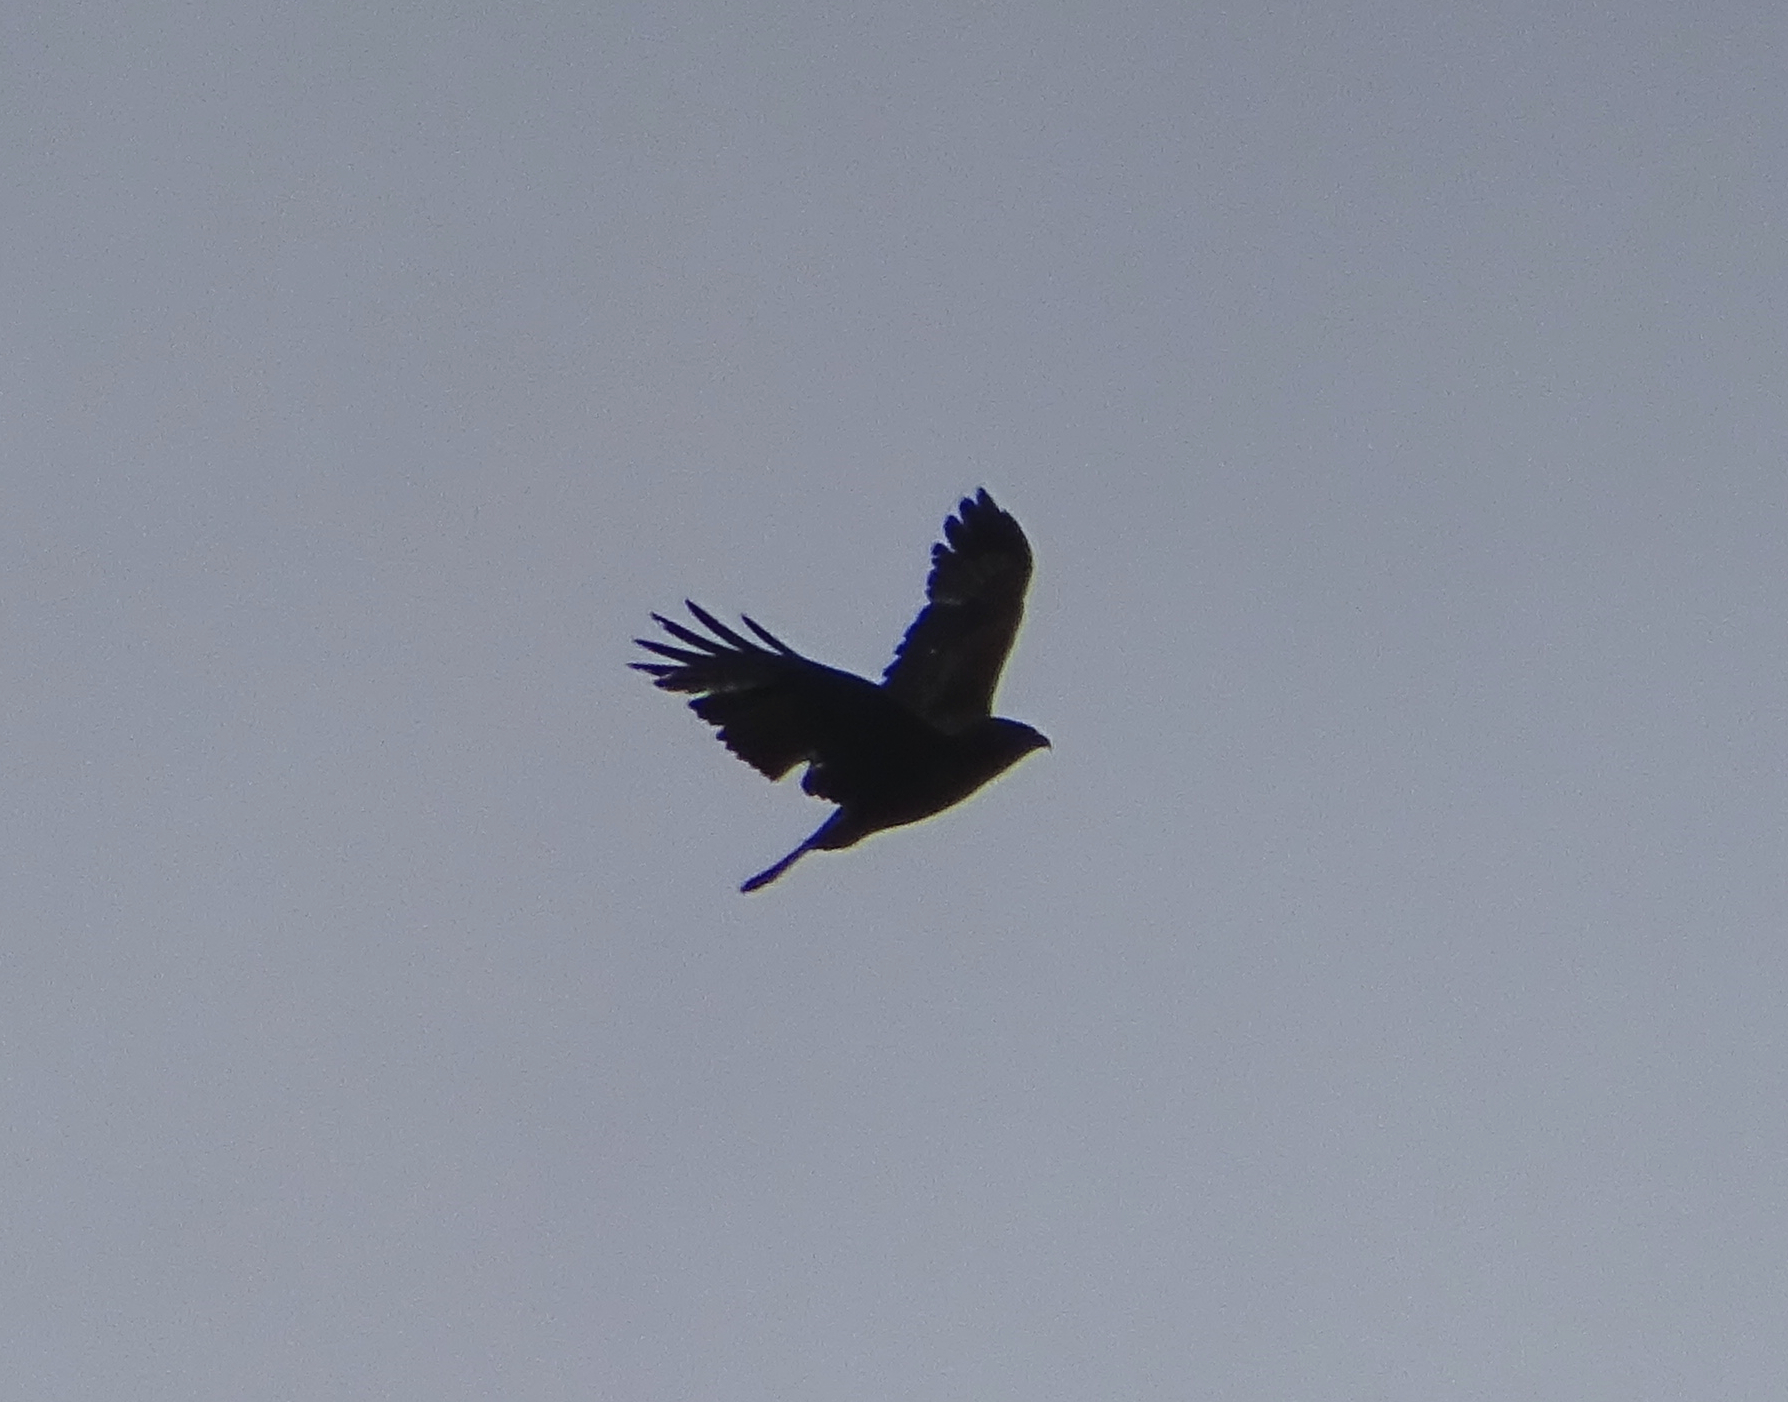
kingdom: Animalia
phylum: Chordata
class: Aves
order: Accipitriformes
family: Accipitridae
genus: Buteo
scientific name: Buteo buteo
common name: Common buzzard
